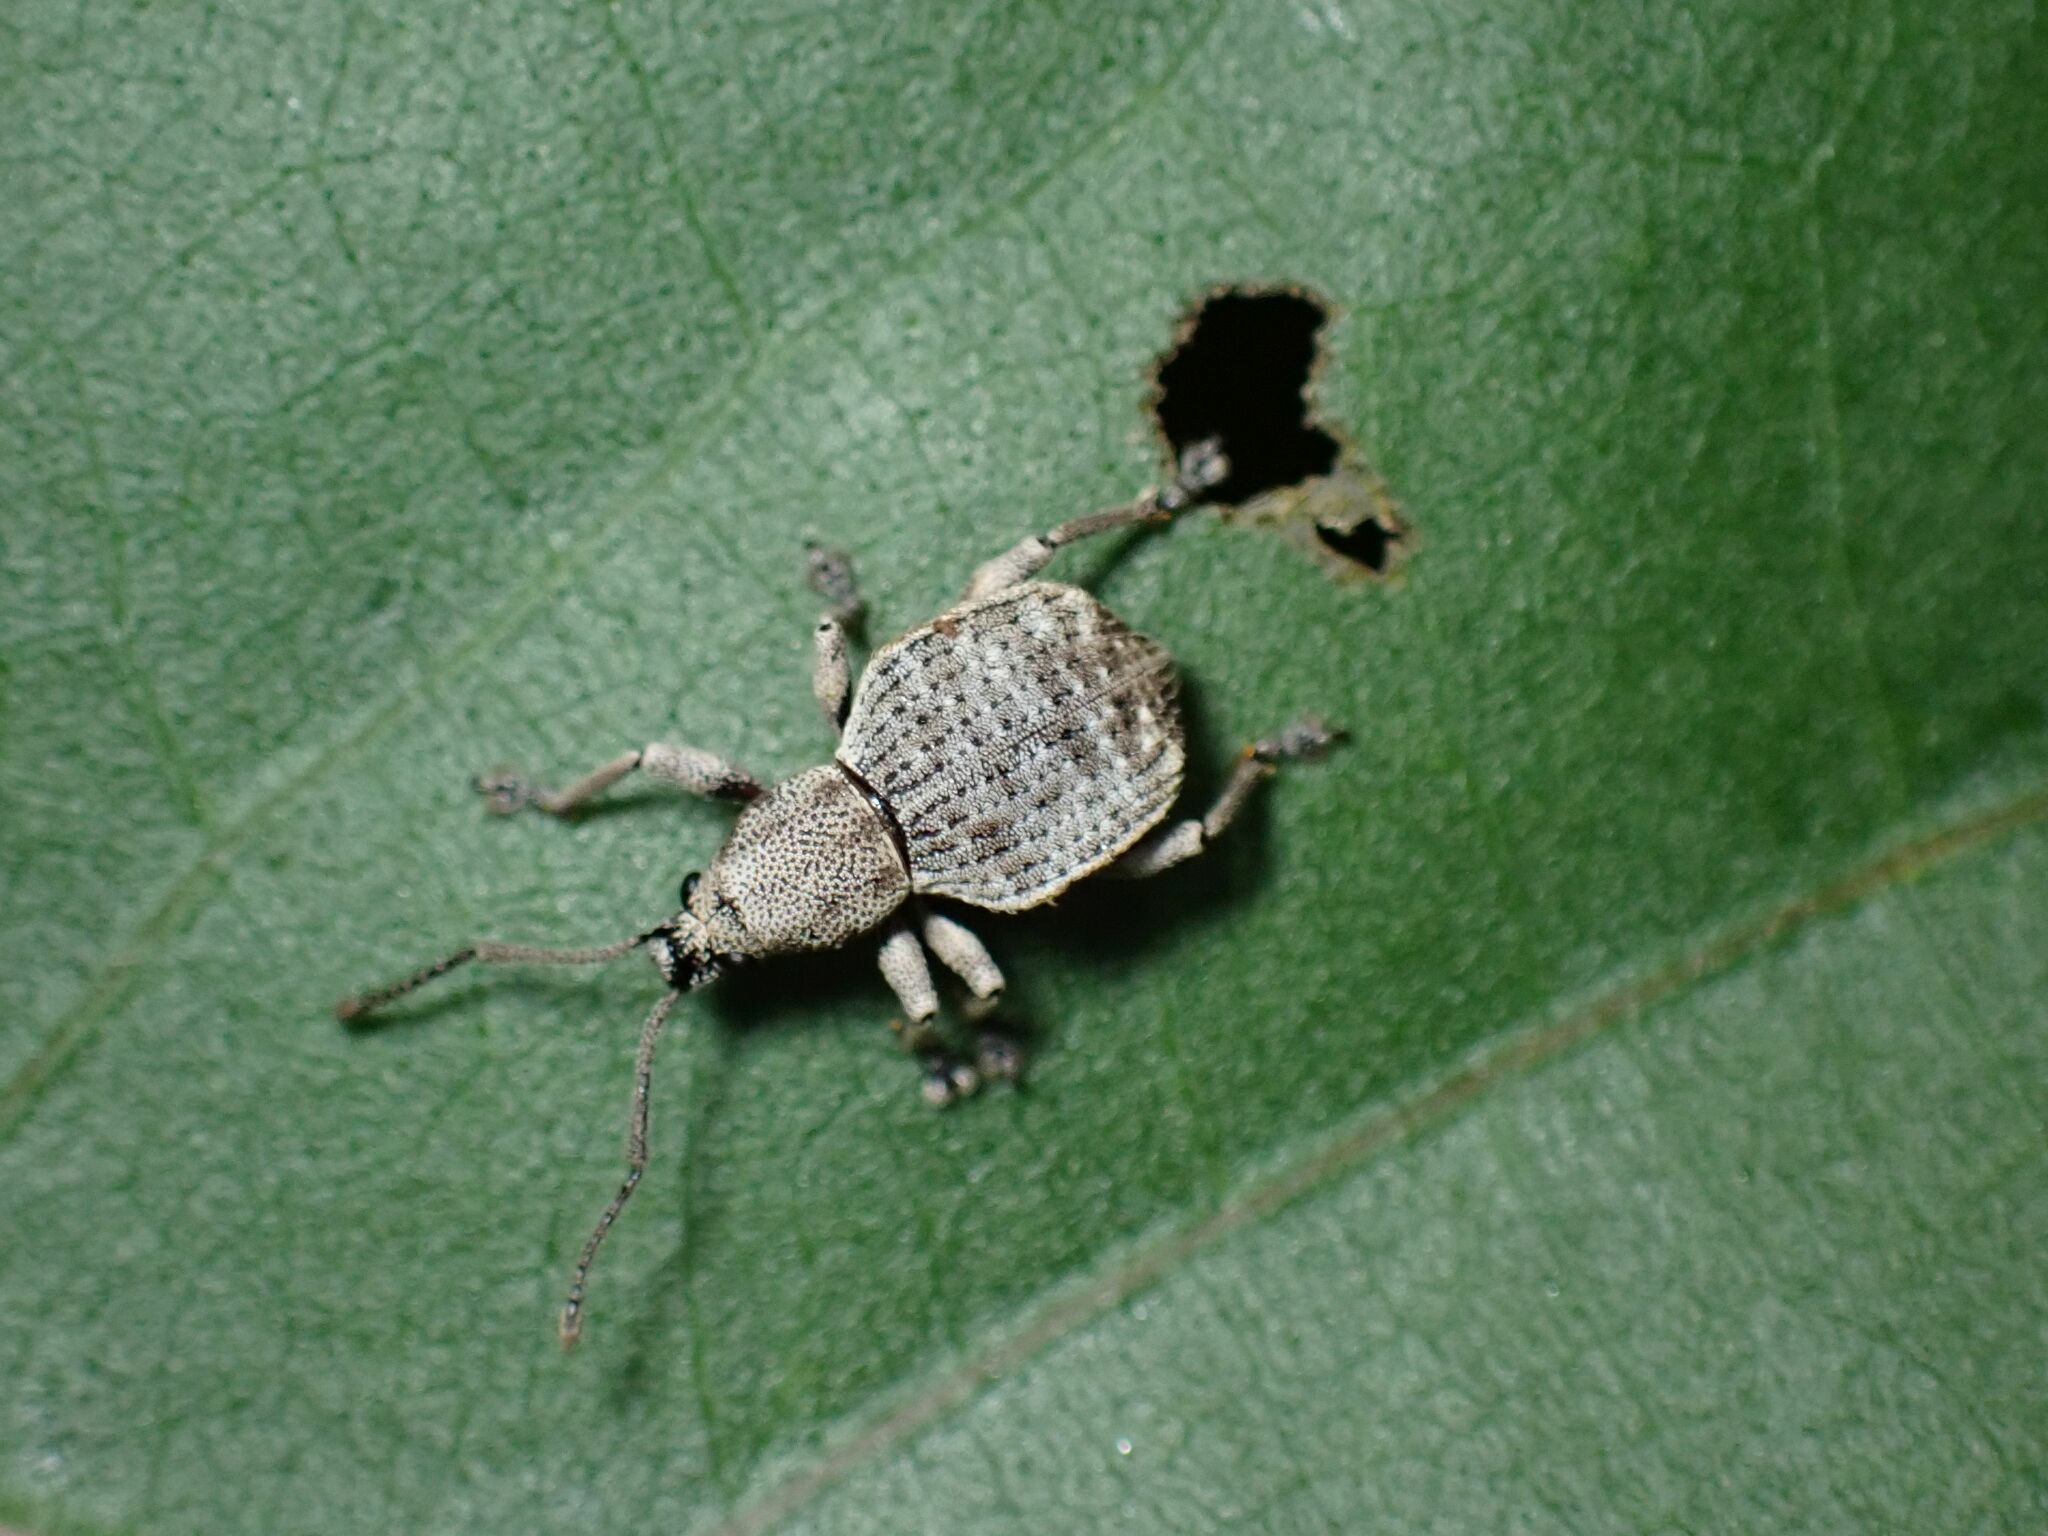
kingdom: Animalia
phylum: Arthropoda
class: Insecta
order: Coleoptera
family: Curculionidae
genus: Platysimus
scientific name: Platysimus septentrionalis
